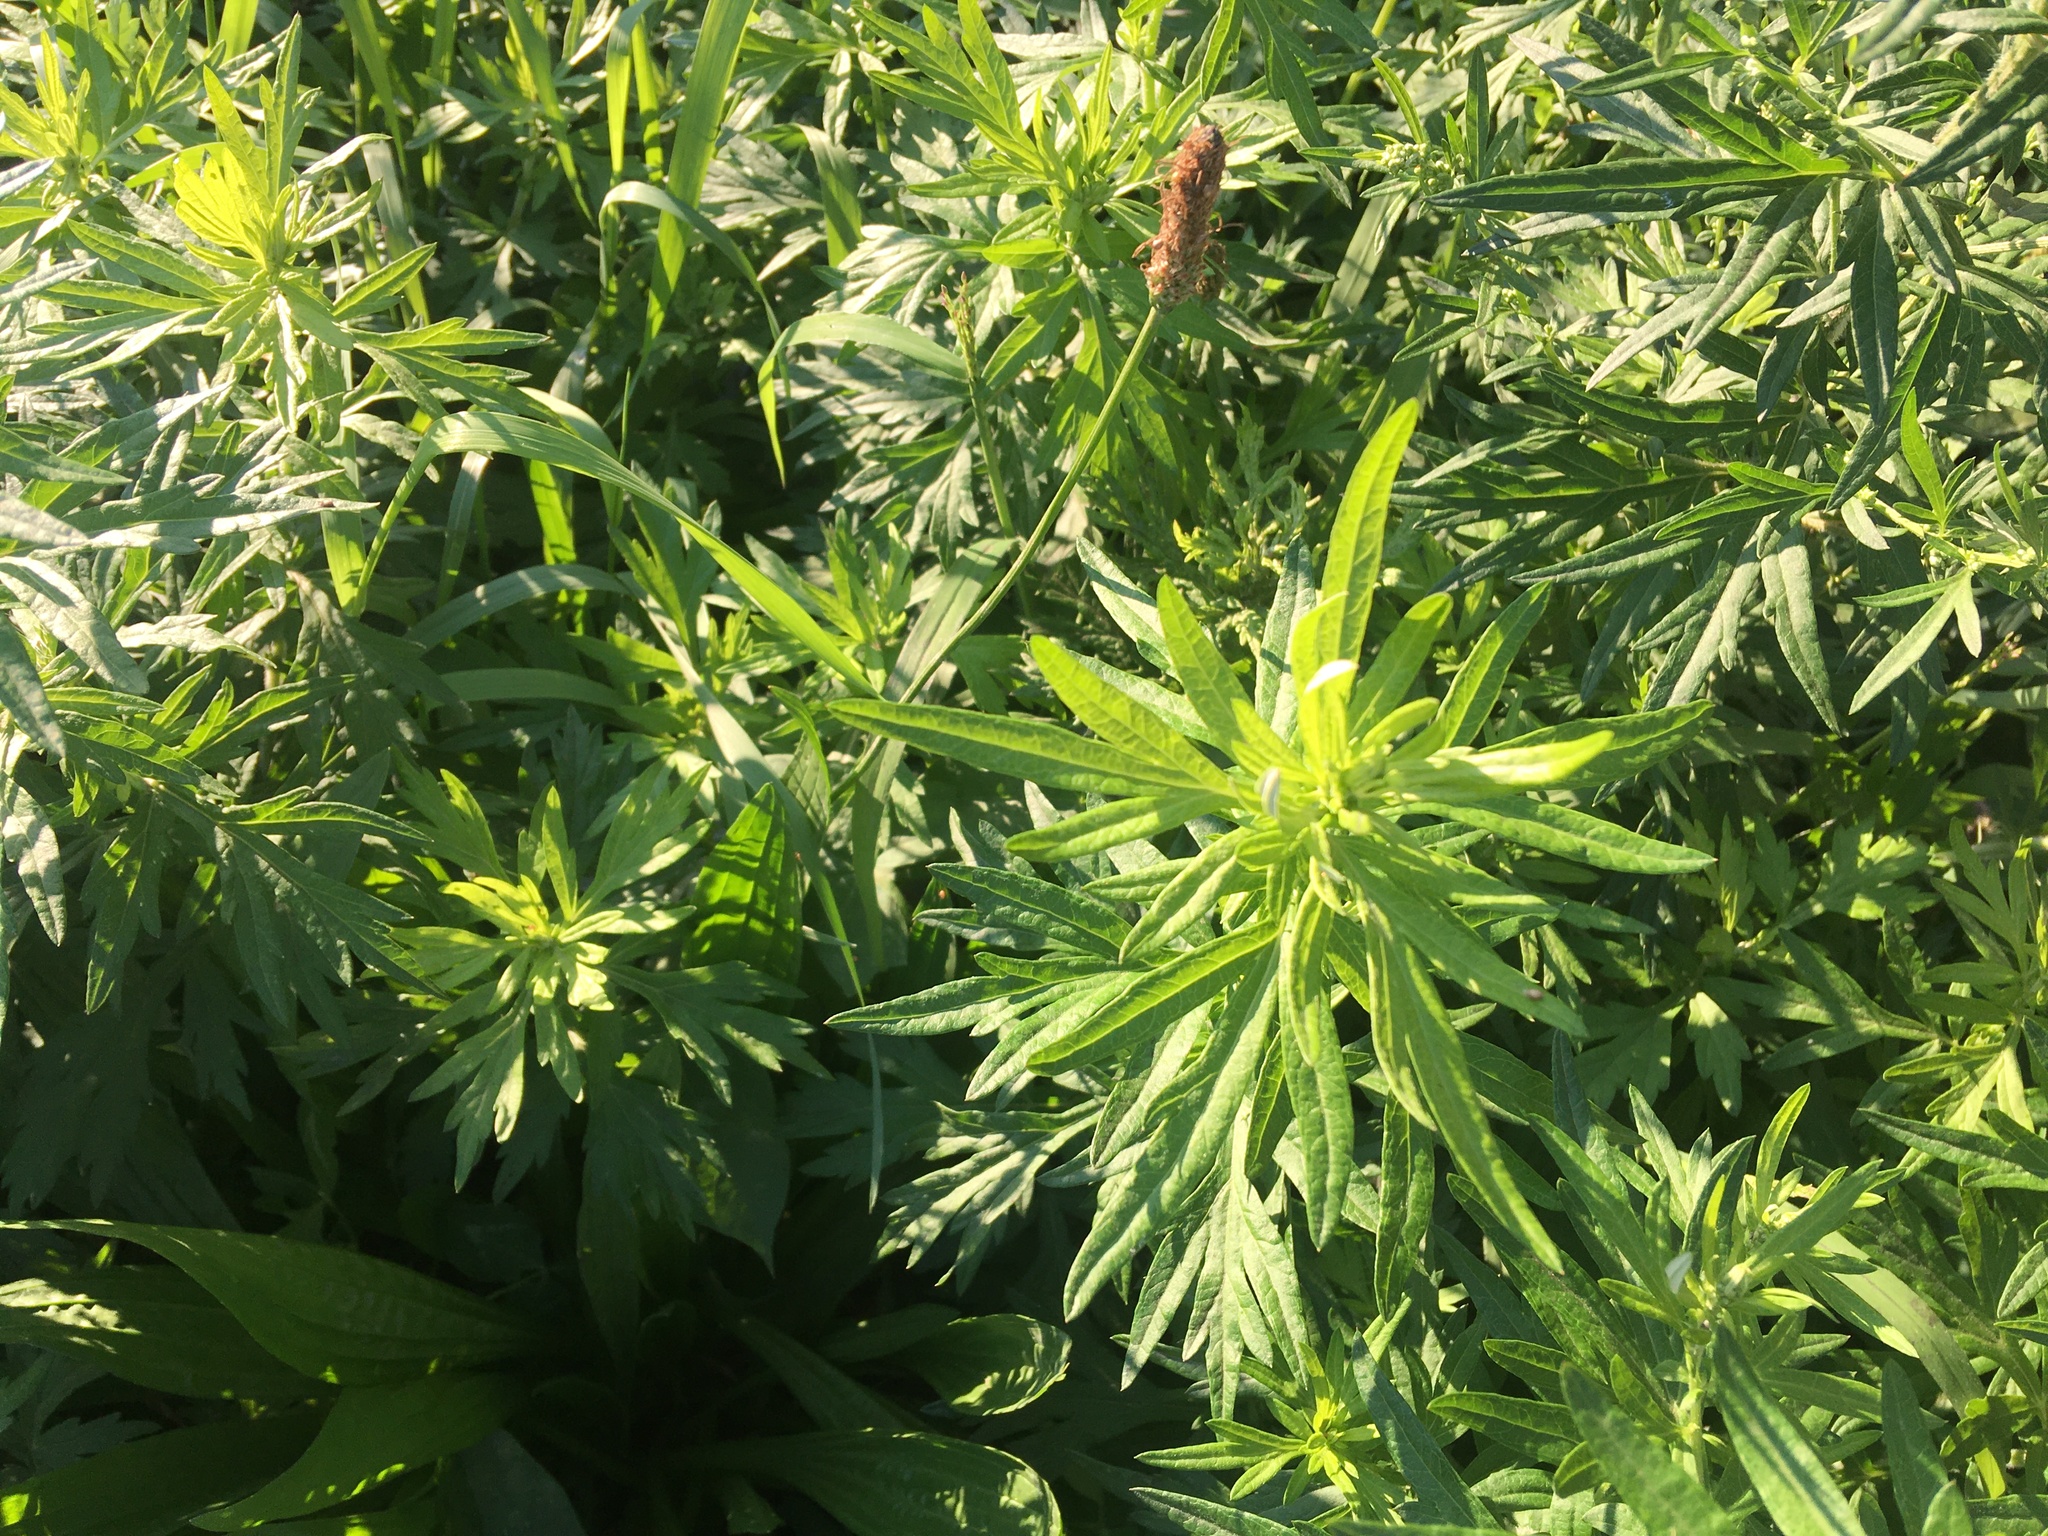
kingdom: Plantae
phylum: Tracheophyta
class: Magnoliopsida
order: Asterales
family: Asteraceae
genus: Artemisia
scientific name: Artemisia vulgaris
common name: Mugwort
